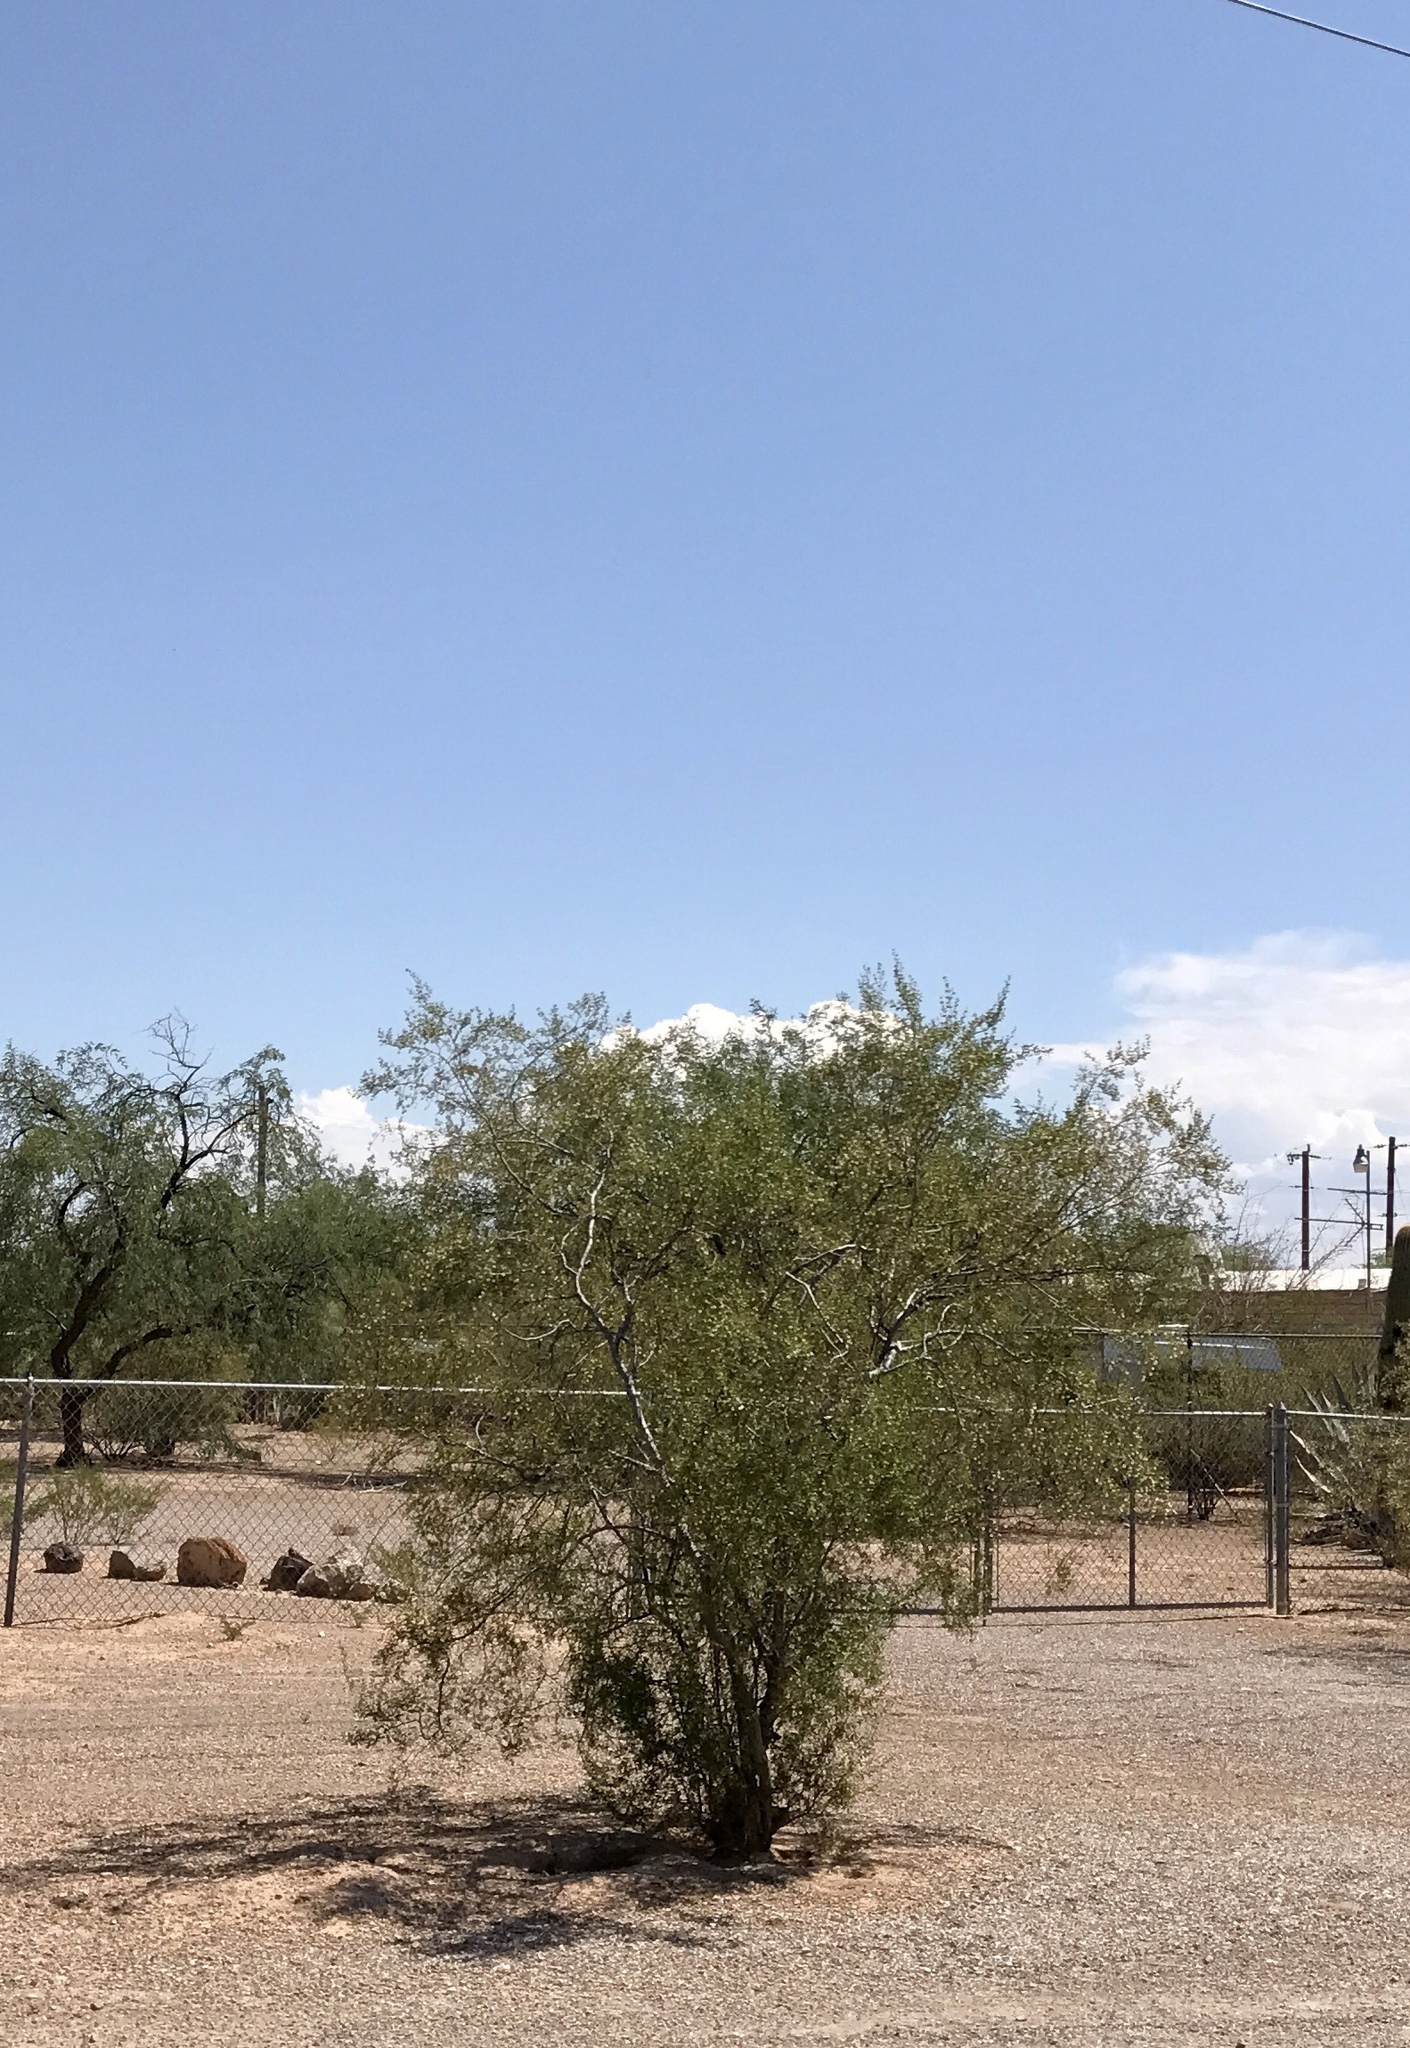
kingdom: Plantae
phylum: Tracheophyta
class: Magnoliopsida
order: Zygophyllales
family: Zygophyllaceae
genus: Larrea
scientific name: Larrea tridentata
